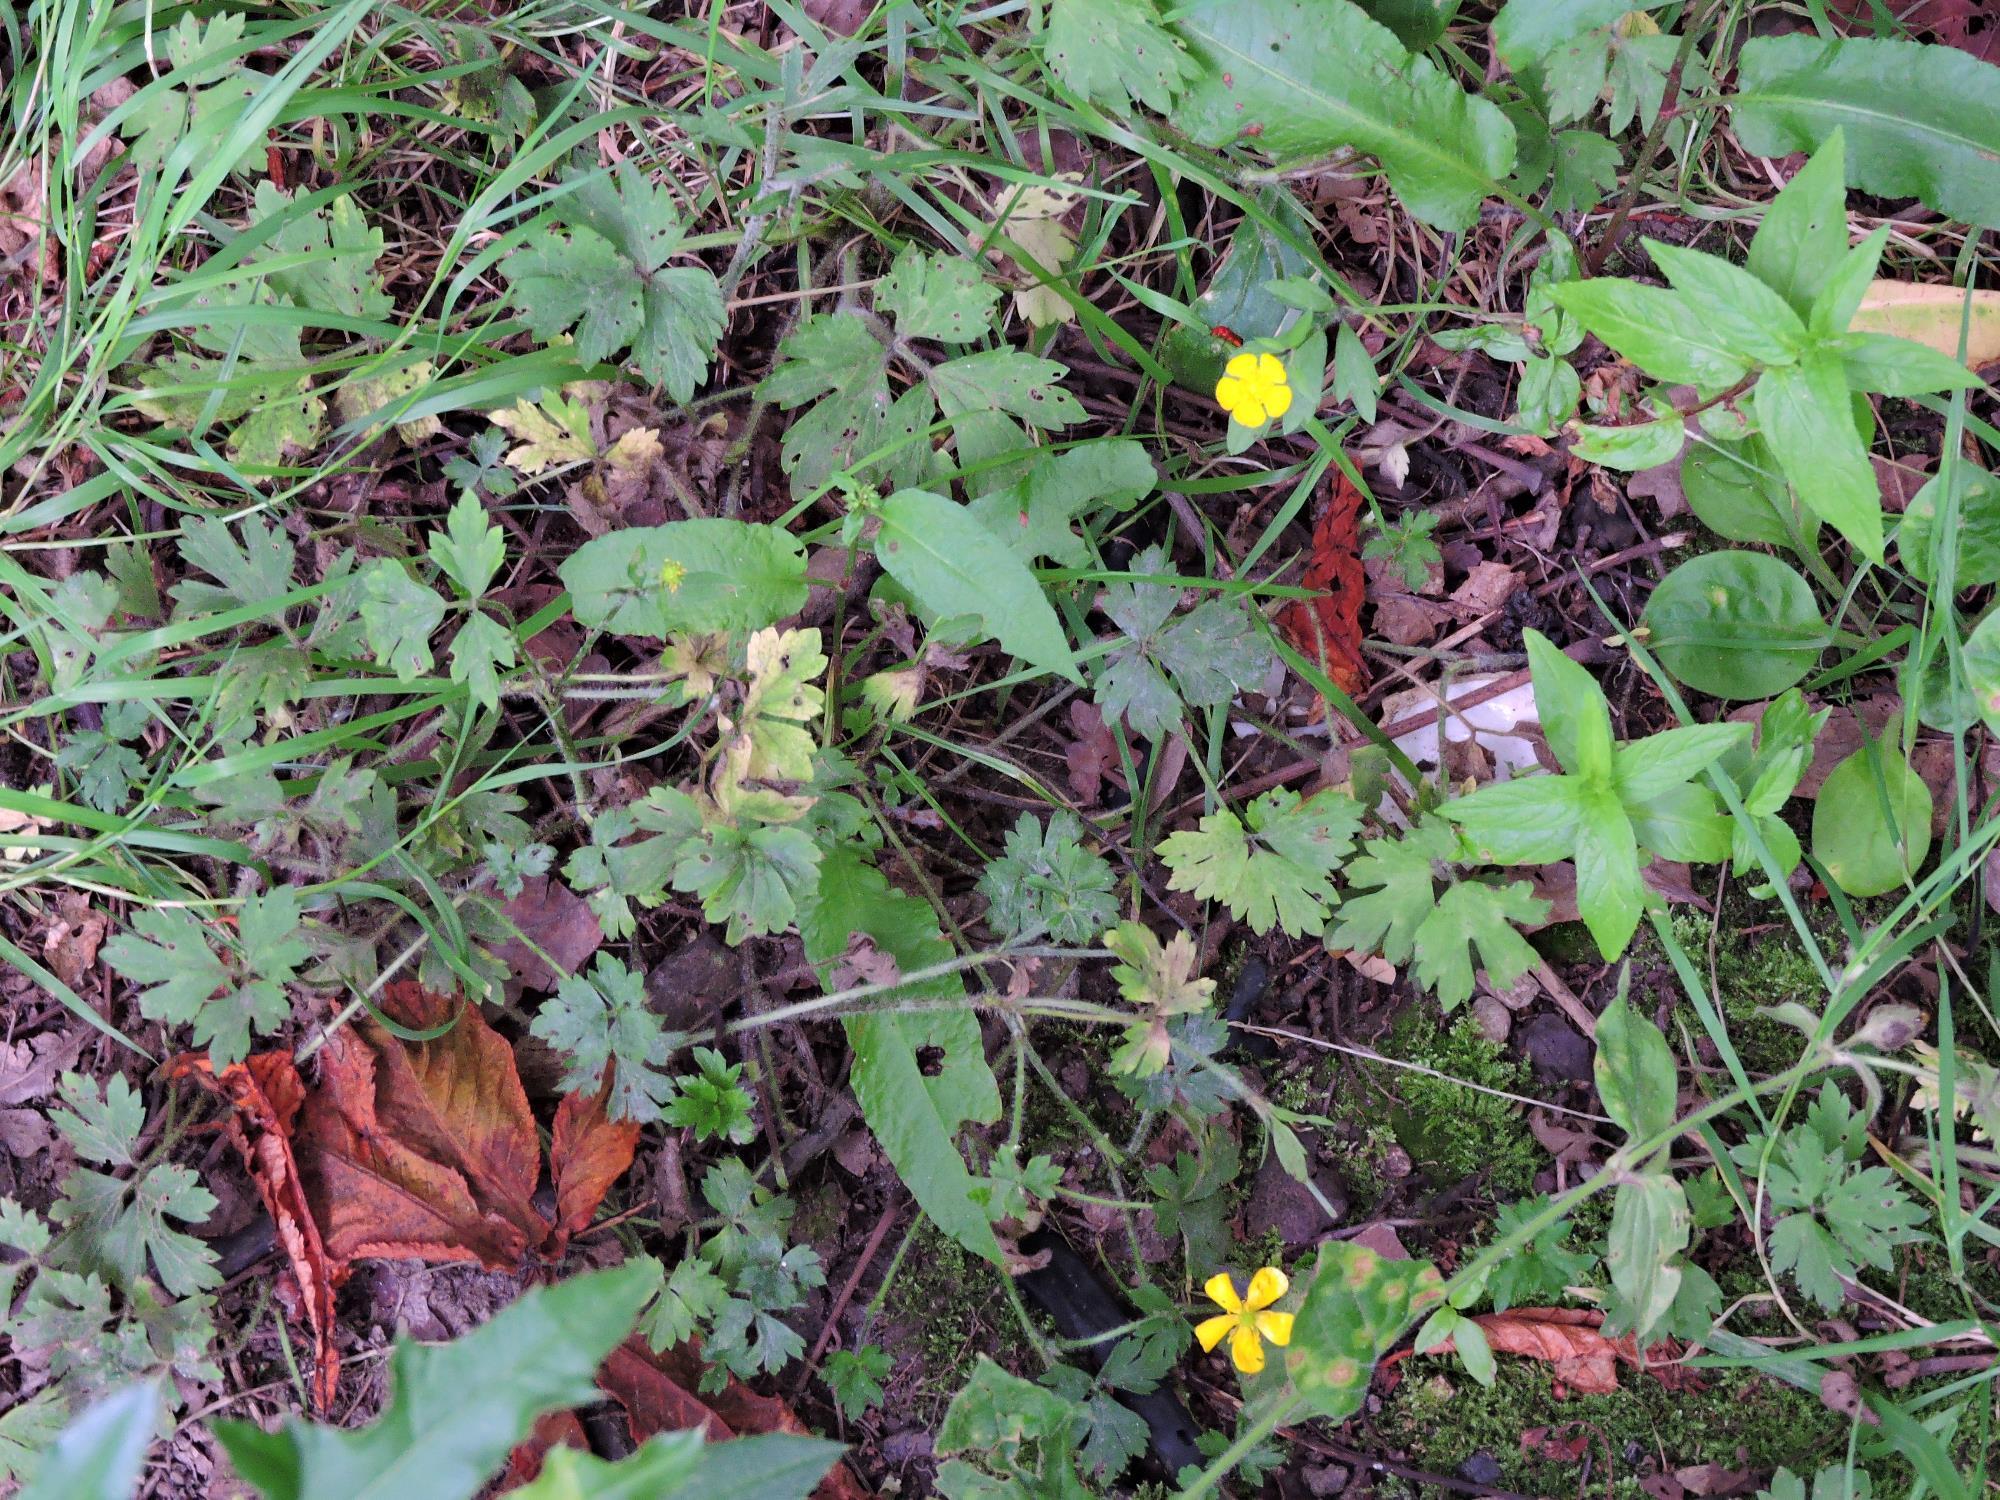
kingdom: Plantae
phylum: Tracheophyta
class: Magnoliopsida
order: Ranunculales
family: Ranunculaceae
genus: Ranunculus
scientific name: Ranunculus repens
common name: Creeping buttercup
